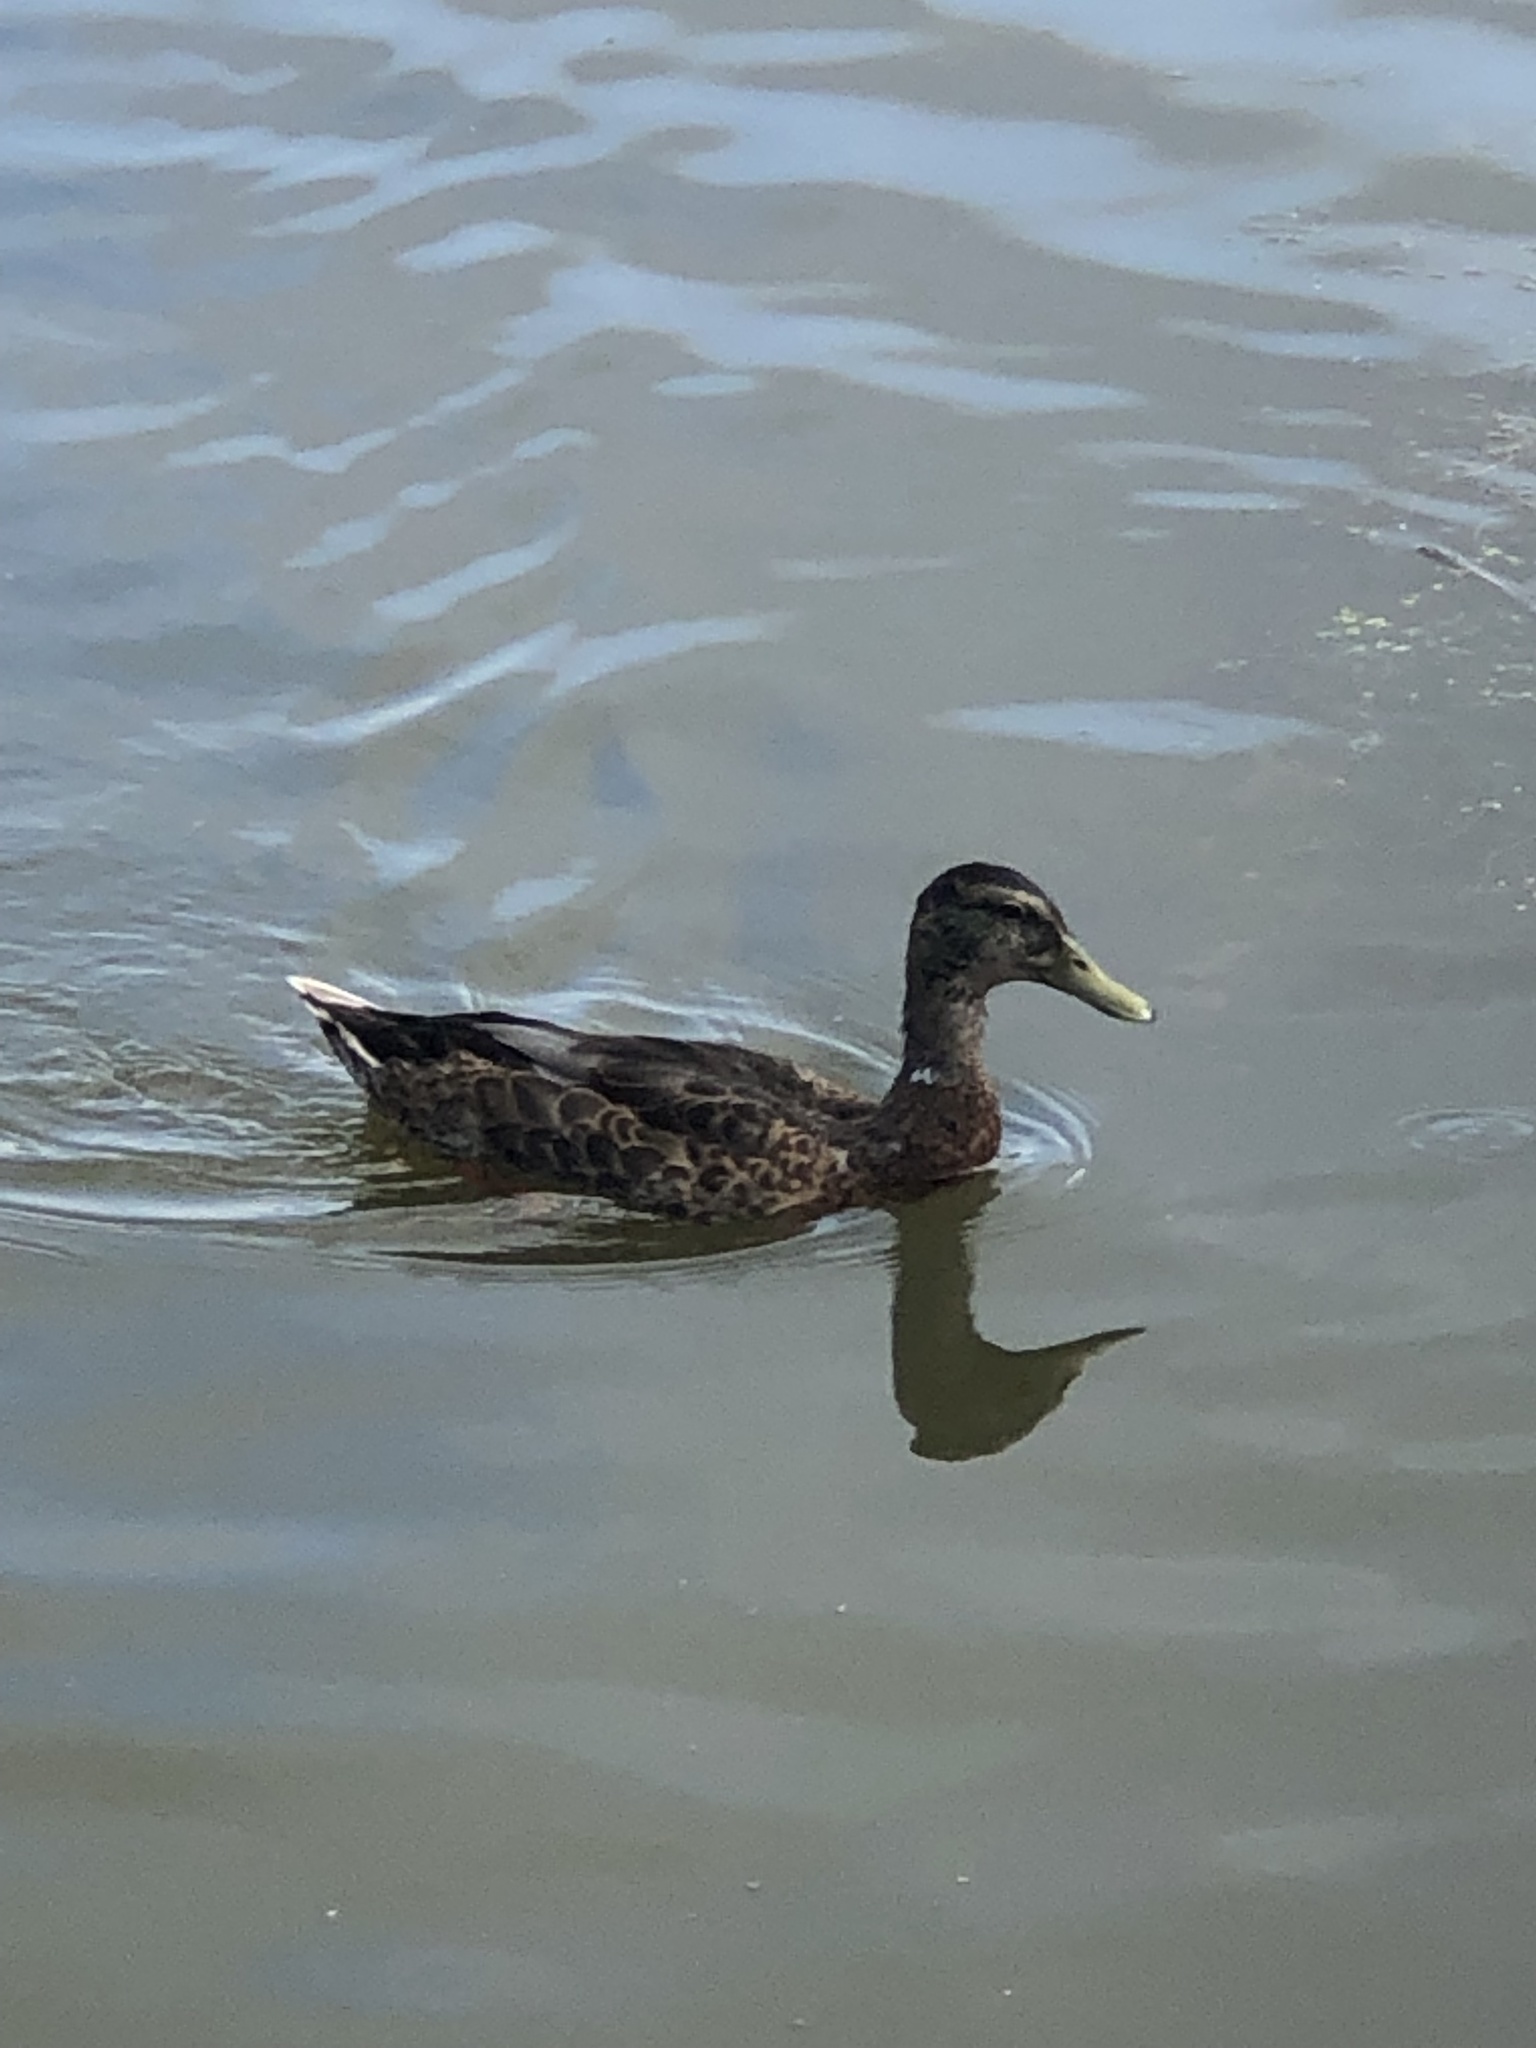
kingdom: Animalia
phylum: Chordata
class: Aves
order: Anseriformes
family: Anatidae
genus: Anas
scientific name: Anas platyrhynchos
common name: Mallard
